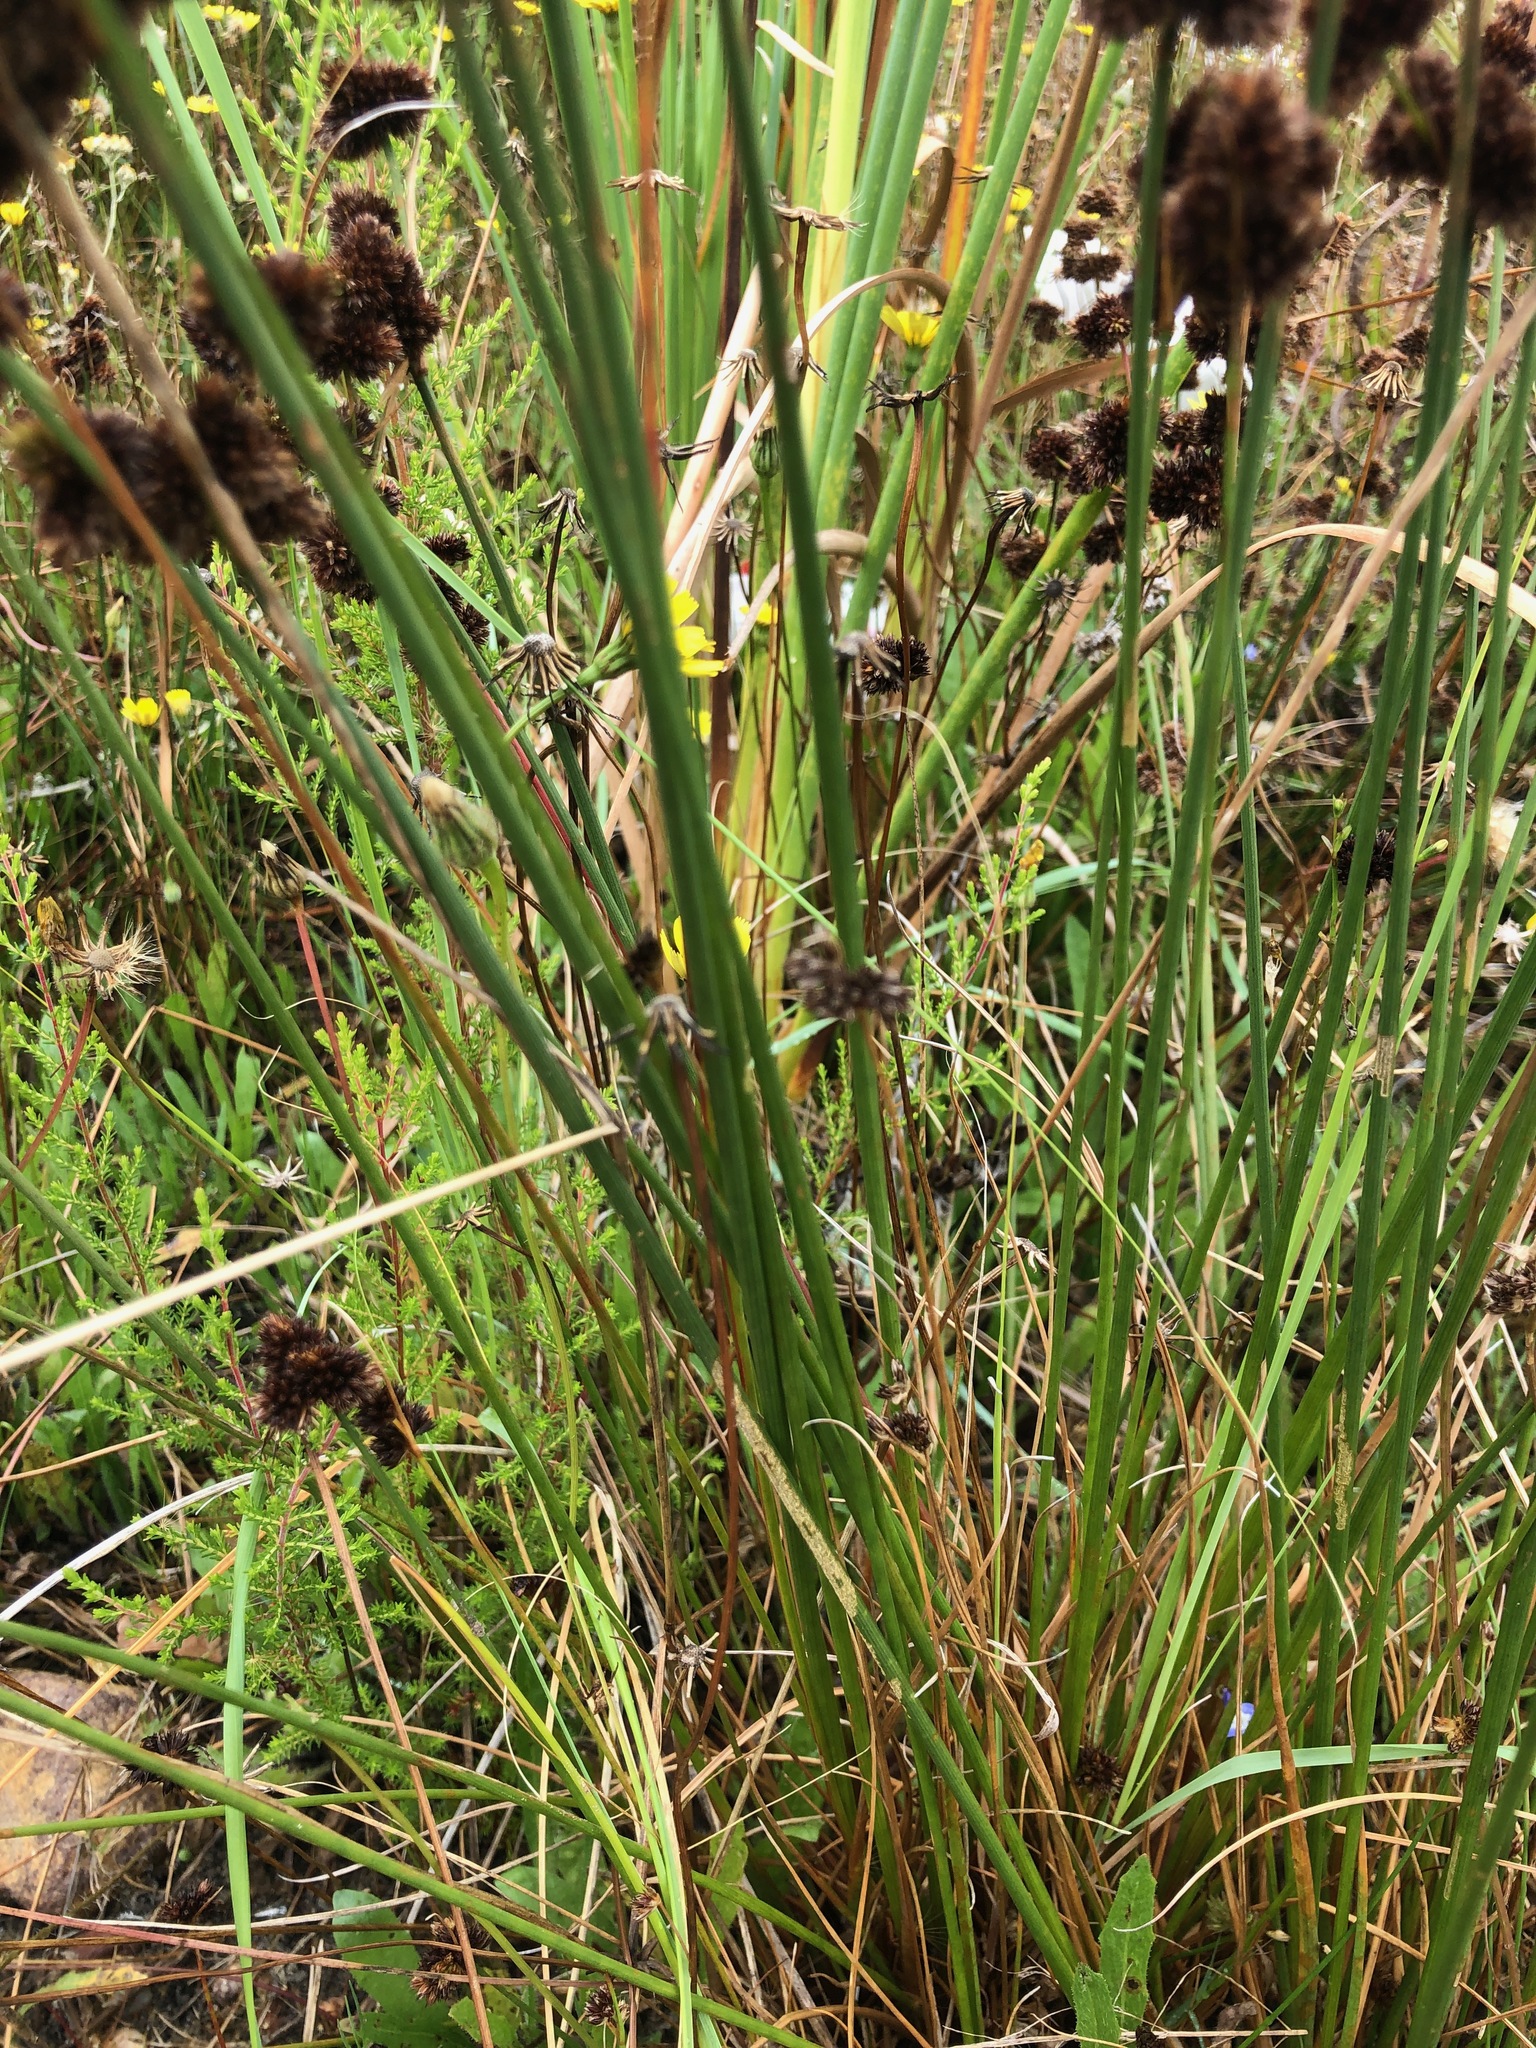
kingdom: Plantae
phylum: Tracheophyta
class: Liliopsida
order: Poales
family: Juncaceae
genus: Juncus
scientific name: Juncus oxycarpus
